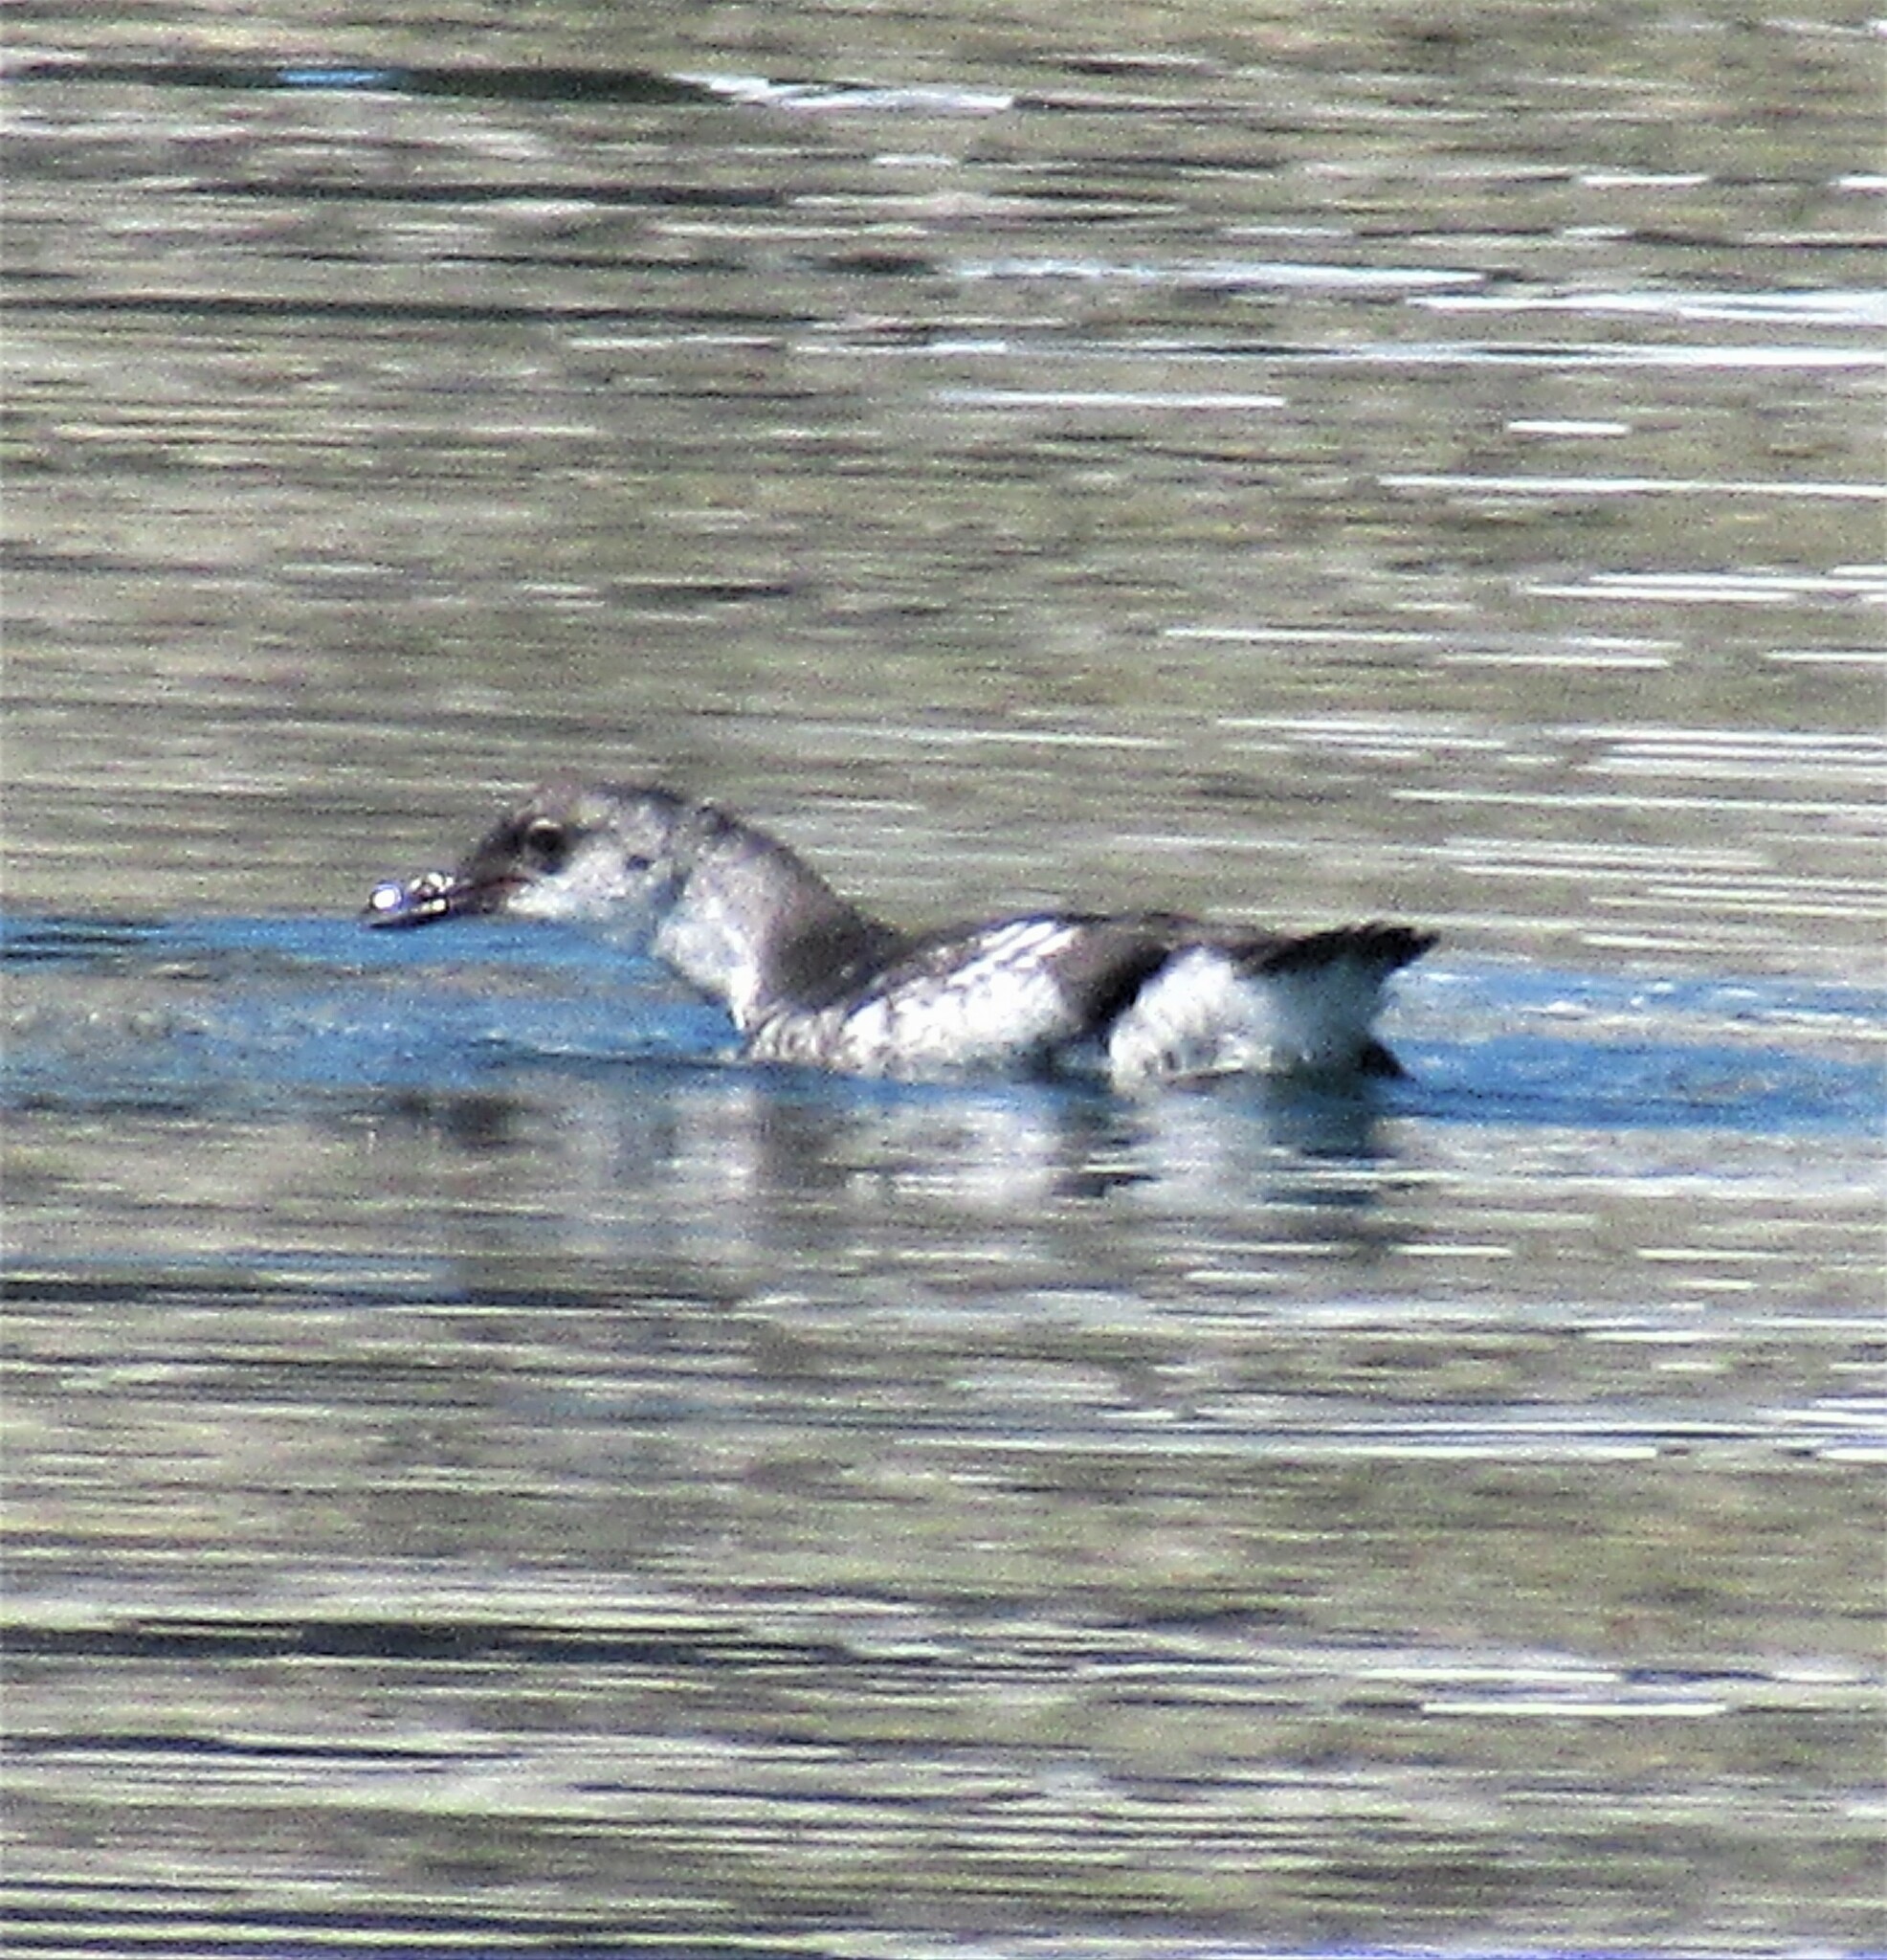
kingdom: Animalia
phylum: Chordata
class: Aves
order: Charadriiformes
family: Alcidae
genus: Cepphus
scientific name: Cepphus columba
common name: Pigeon guillemot
